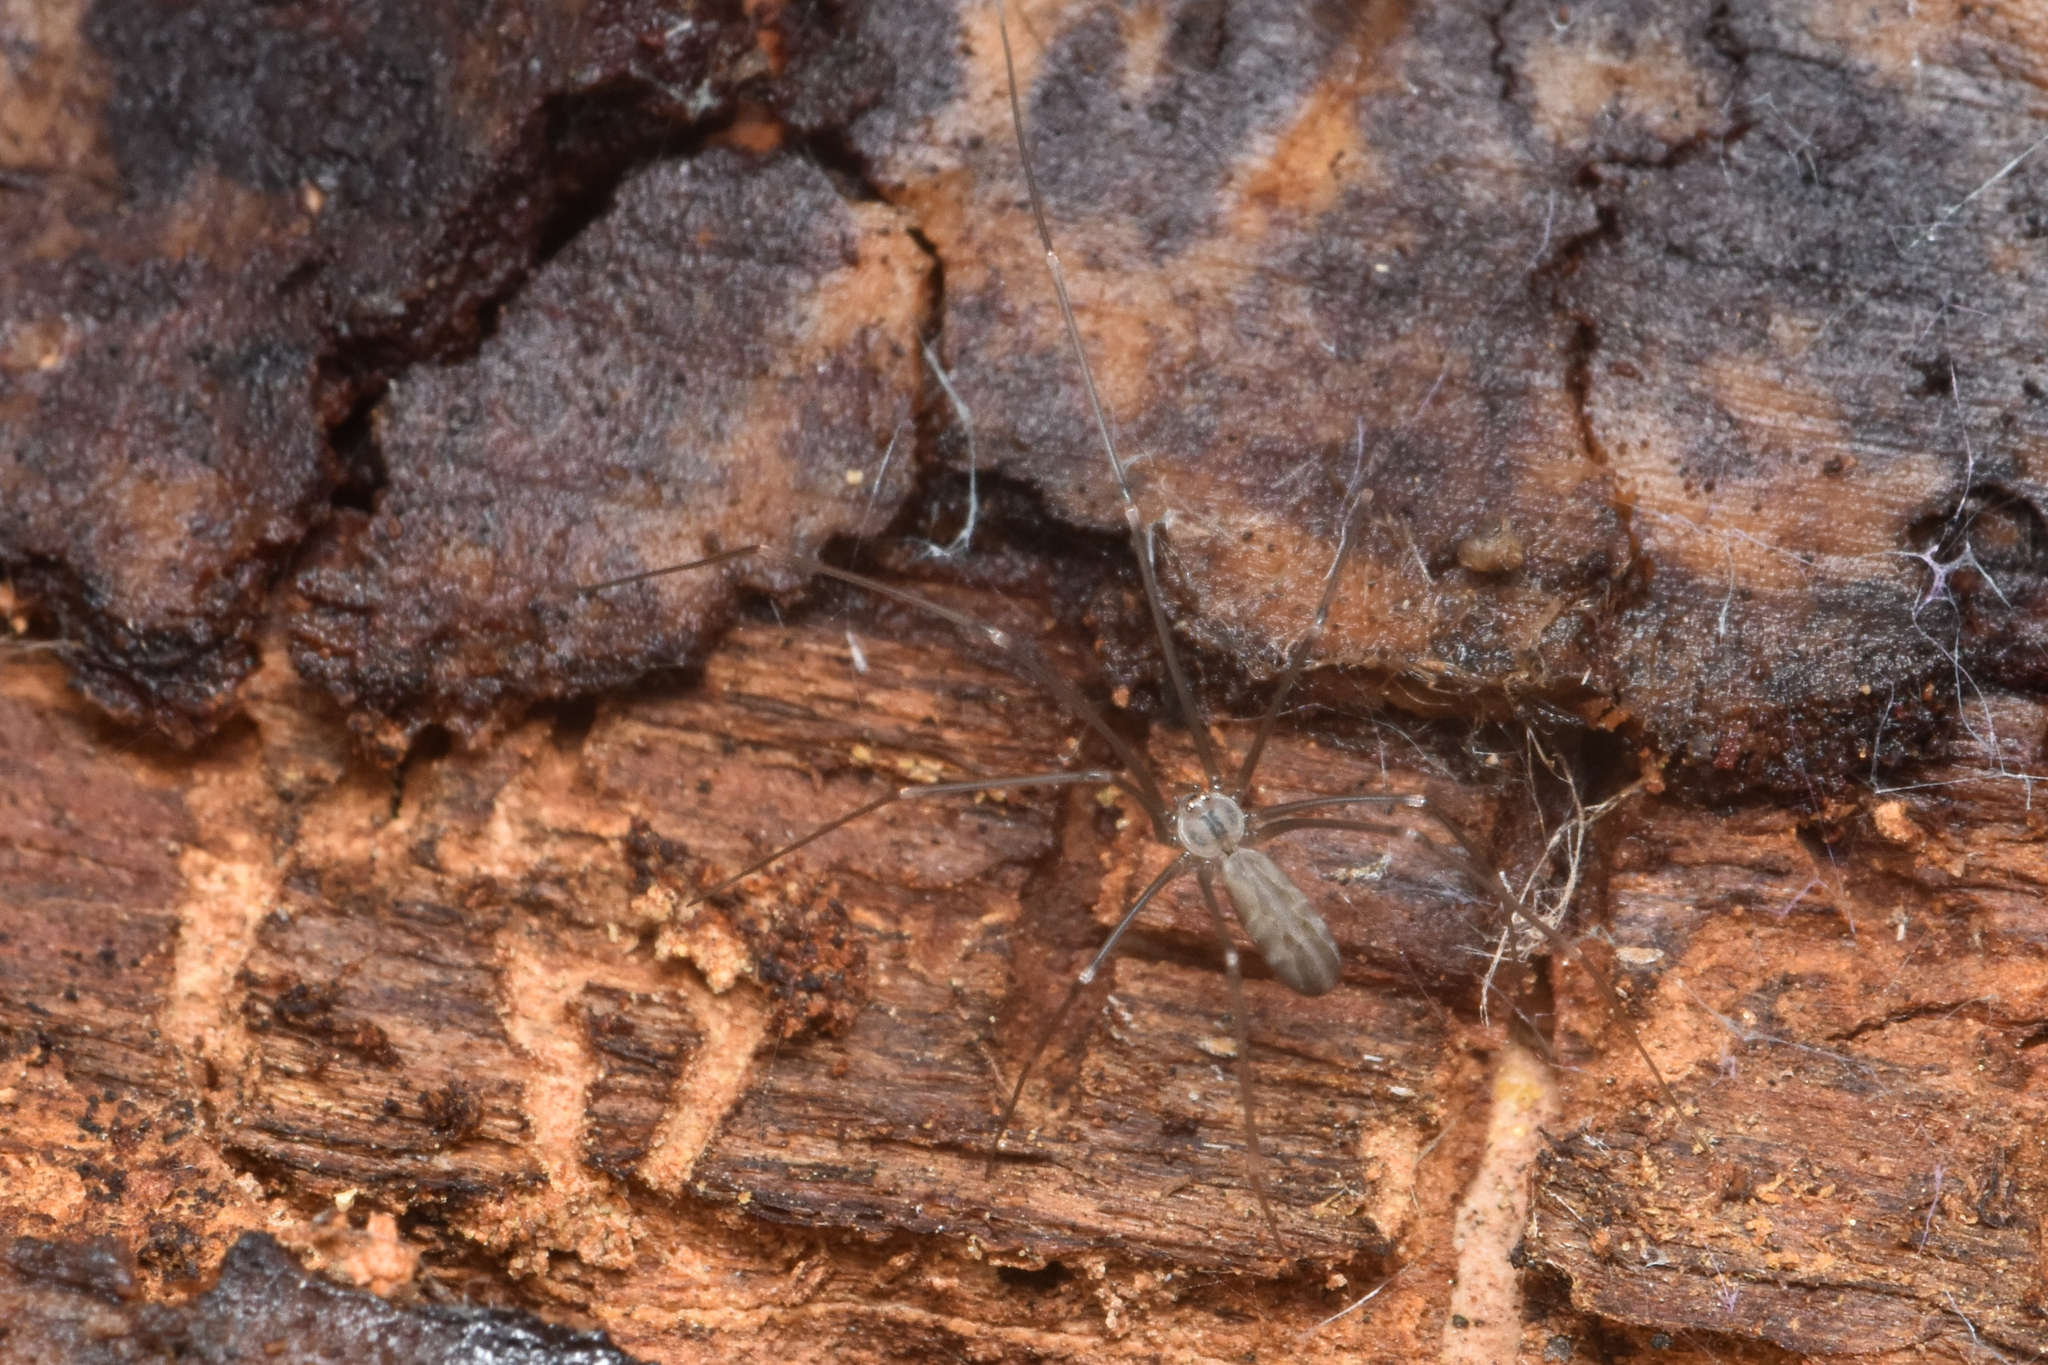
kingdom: Animalia
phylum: Arthropoda
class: Arachnida
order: Araneae
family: Pholcidae
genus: Pholcus
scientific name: Pholcus opilionoides
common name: Daddylongleg spider
